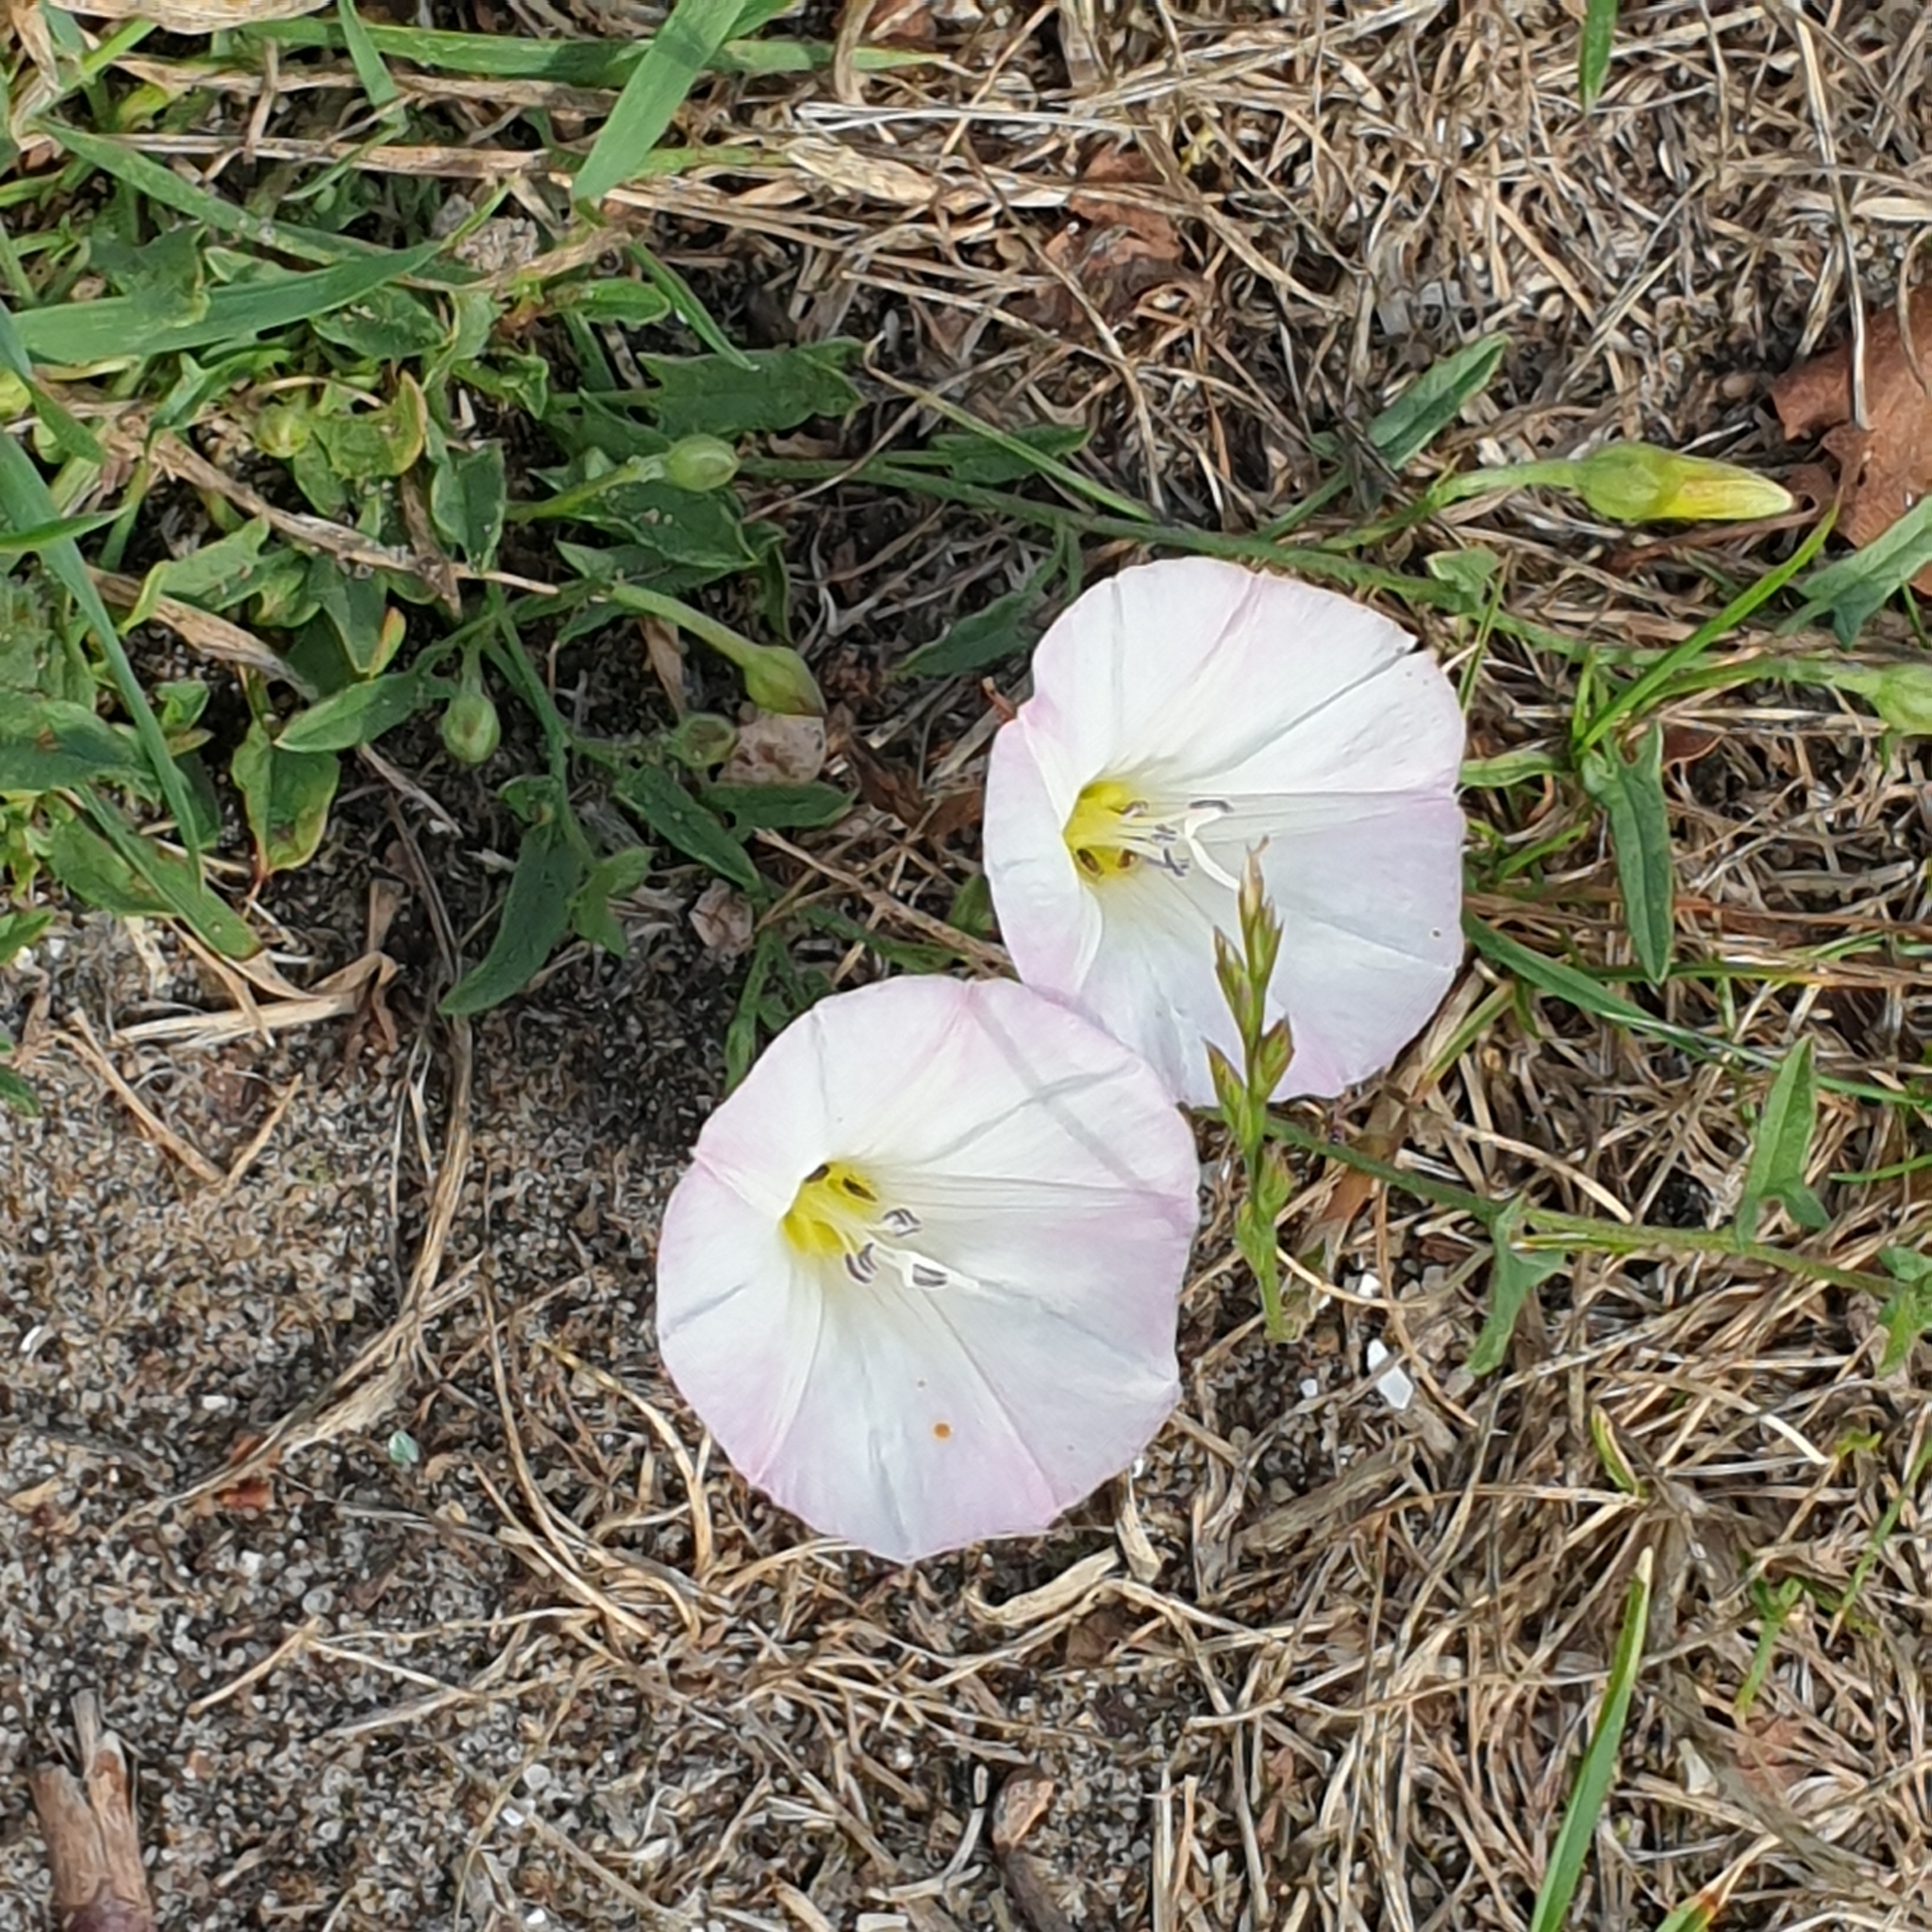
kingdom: Plantae
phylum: Tracheophyta
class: Magnoliopsida
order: Solanales
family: Convolvulaceae
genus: Convolvulus
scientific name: Convolvulus arvensis
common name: Field bindweed
